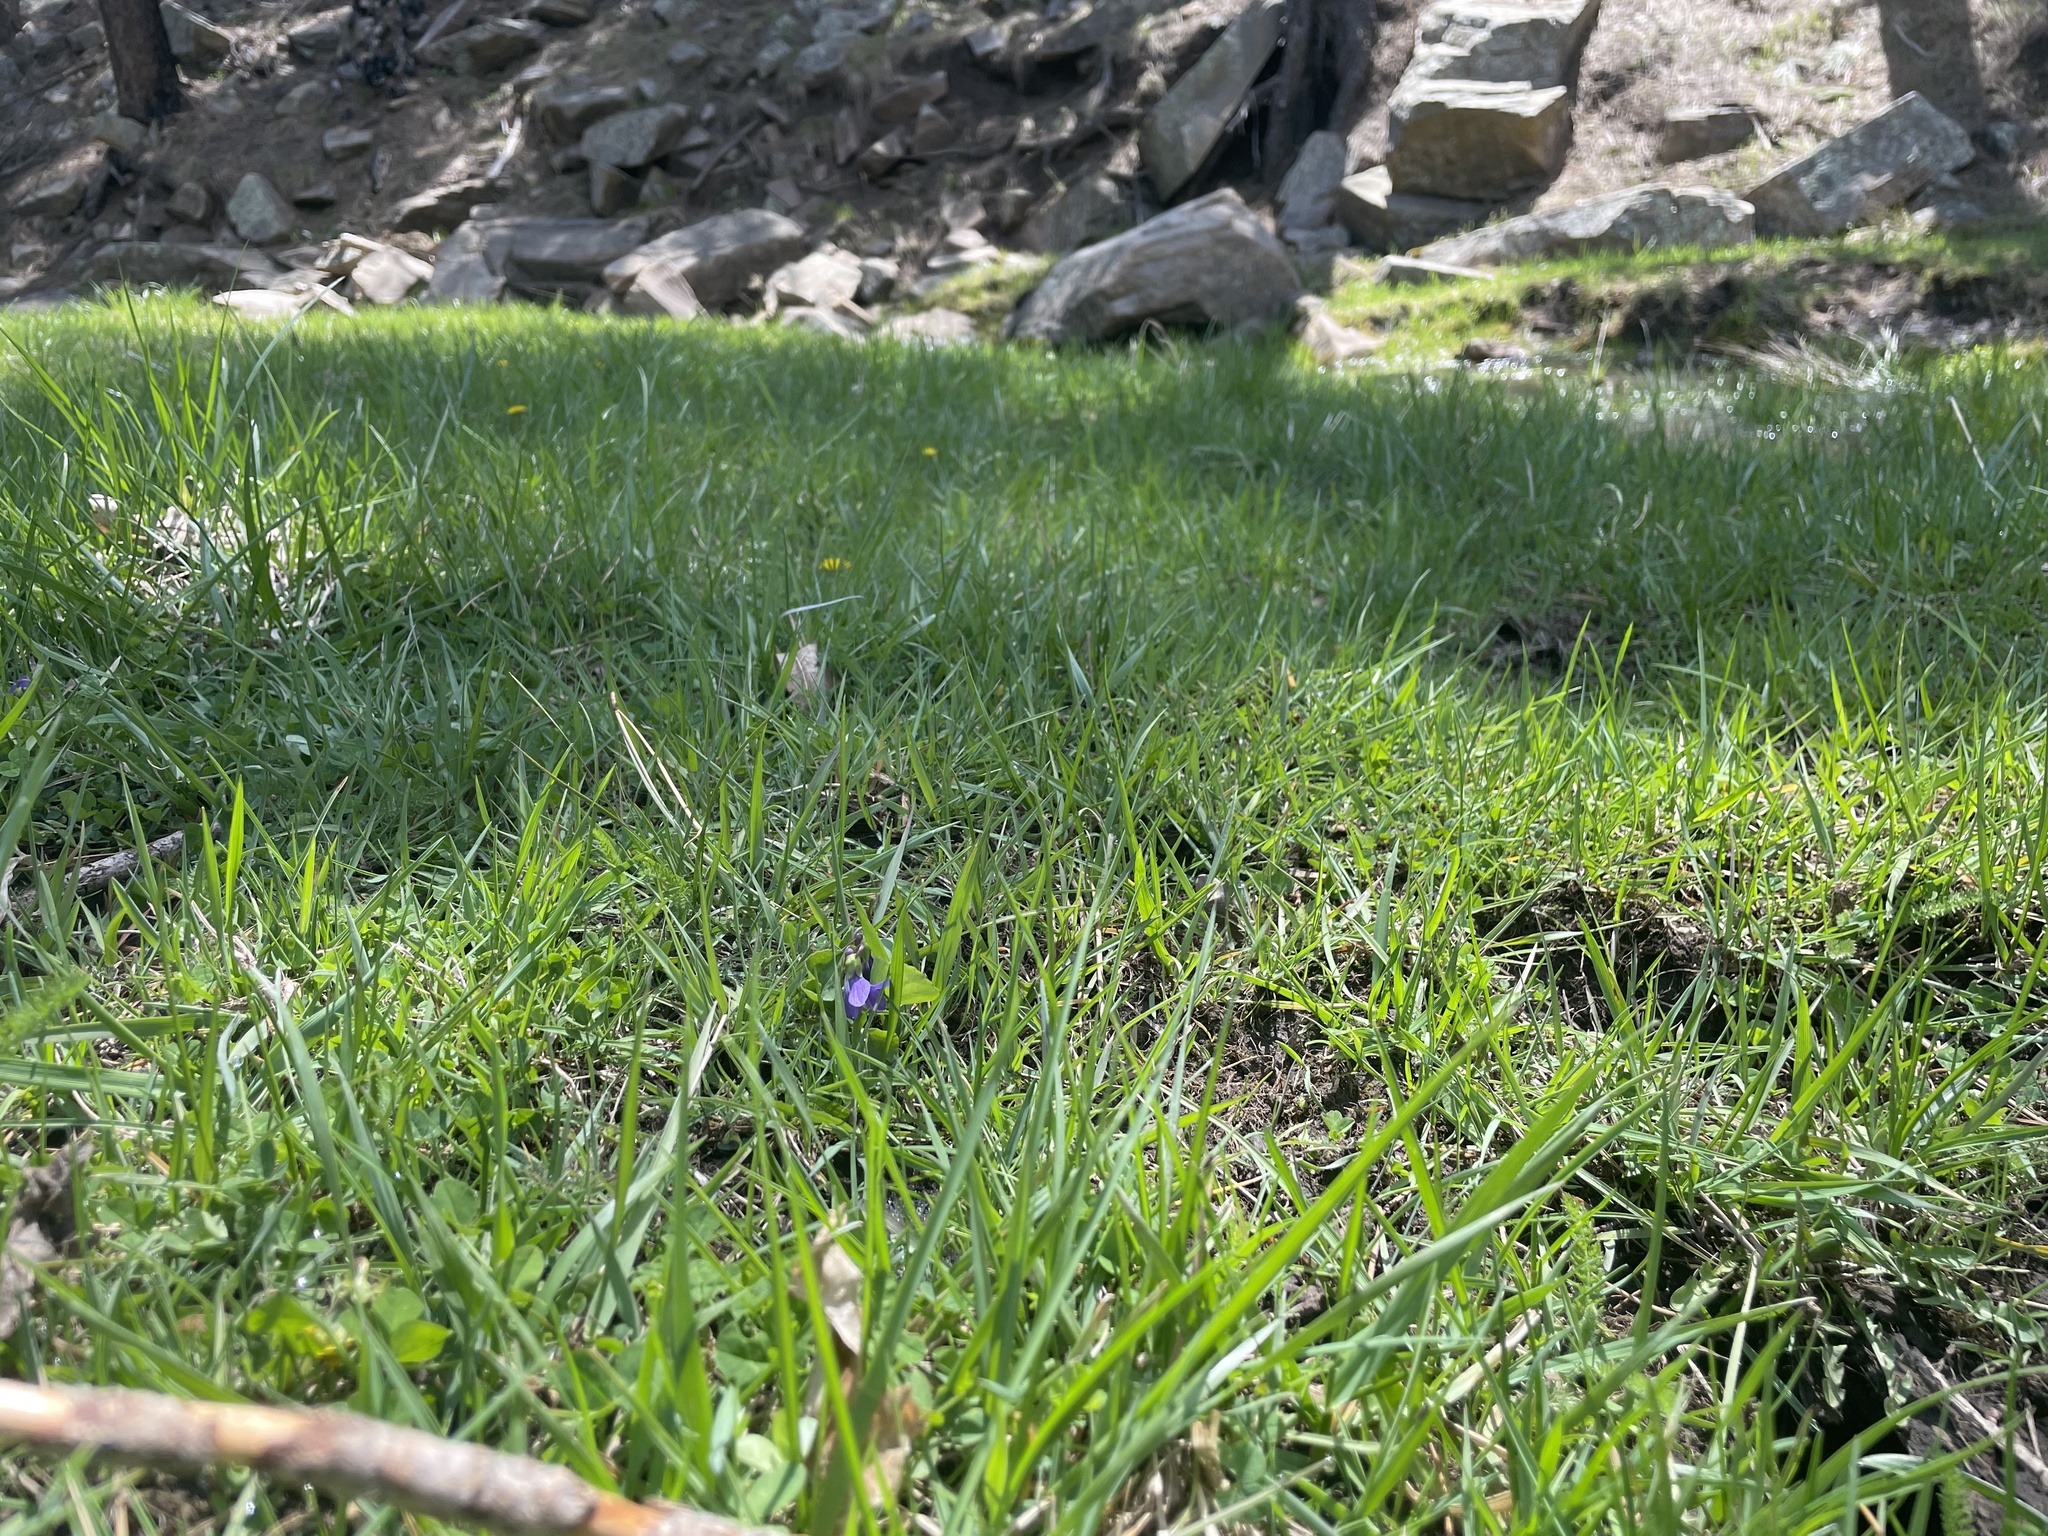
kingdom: Plantae
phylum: Tracheophyta
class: Magnoliopsida
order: Malpighiales
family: Violaceae
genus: Viola
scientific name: Viola nephrophylla
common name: Blue meadow violet
